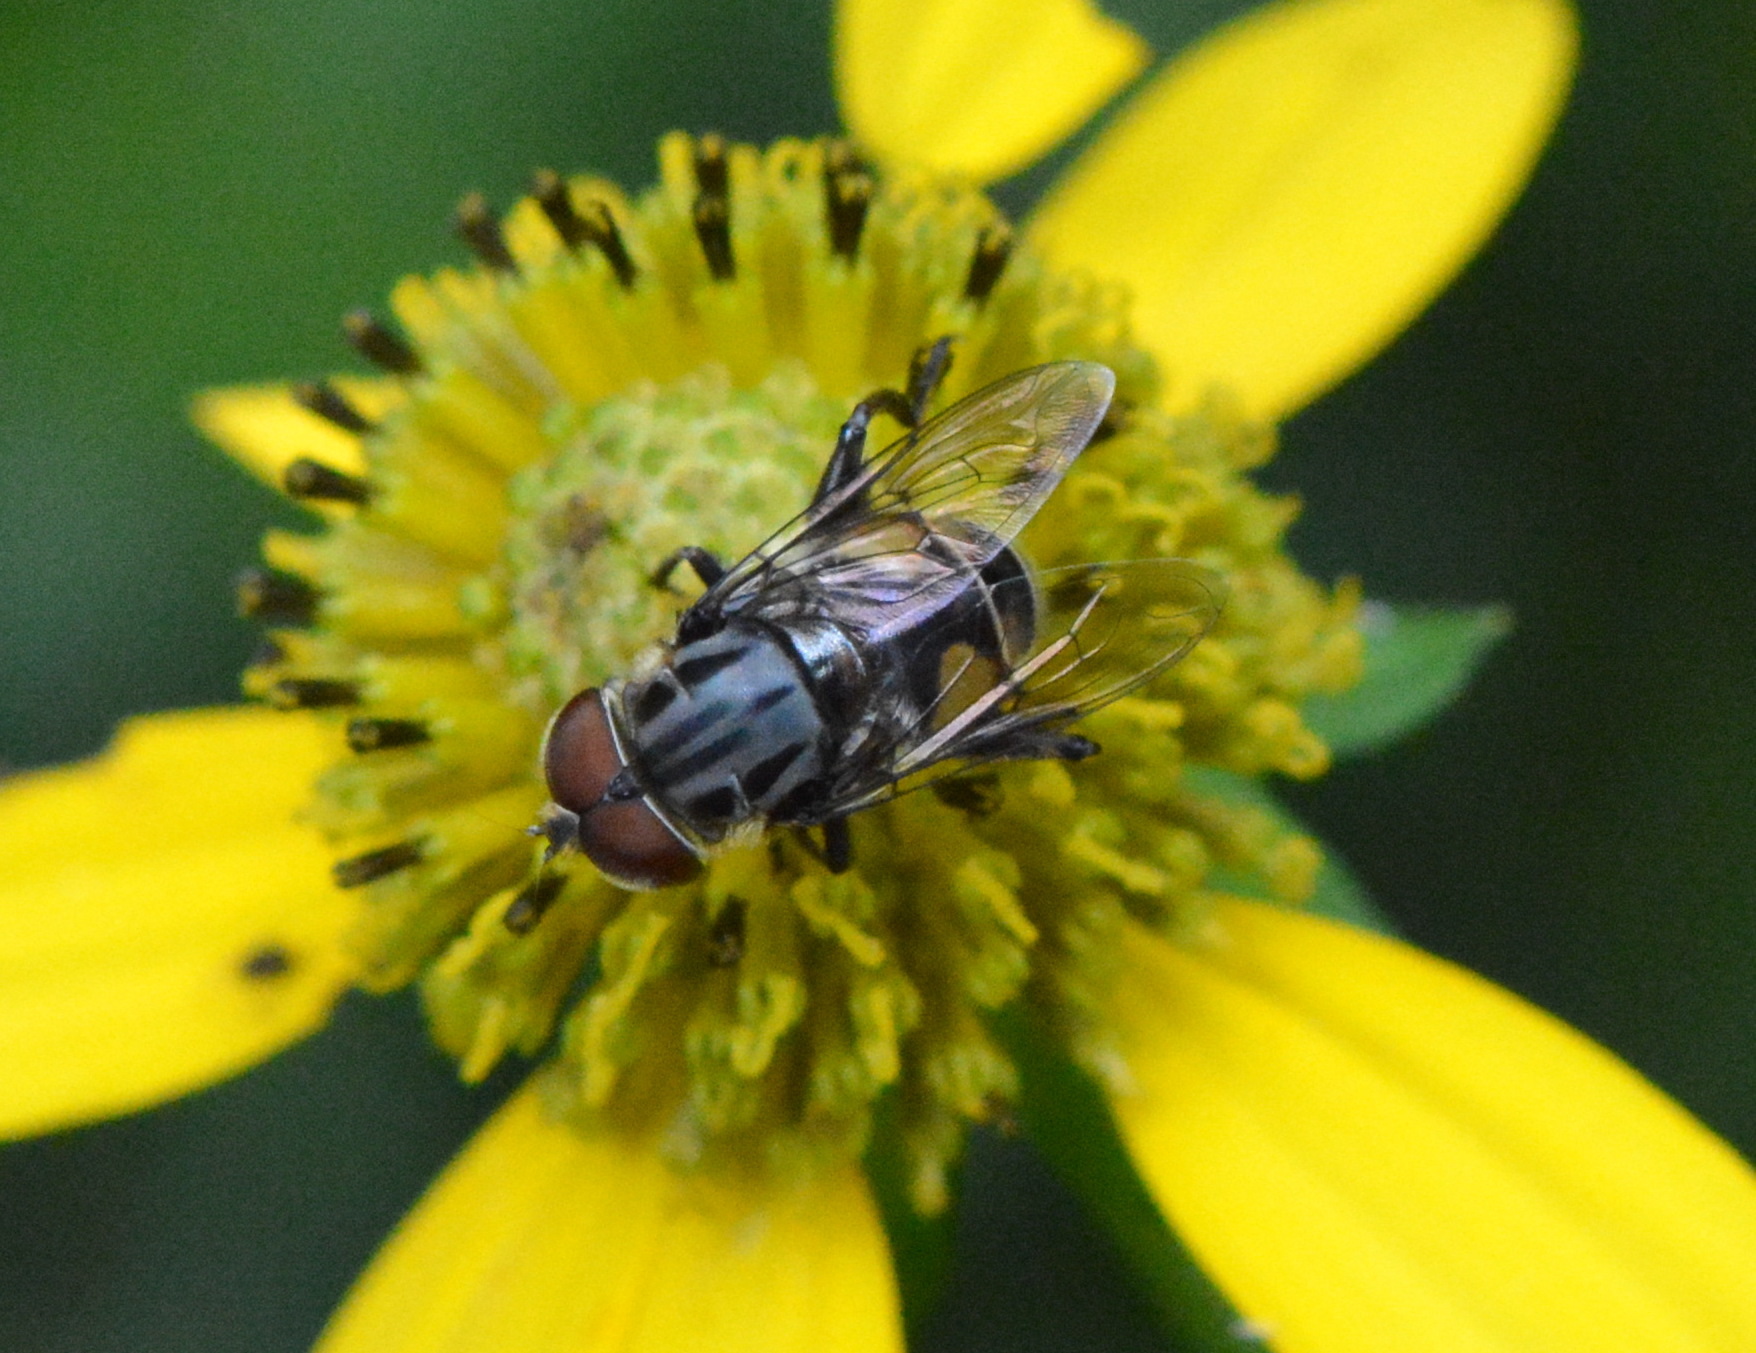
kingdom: Animalia
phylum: Arthropoda
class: Insecta
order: Diptera
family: Syrphidae
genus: Palpada
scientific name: Palpada furcata
